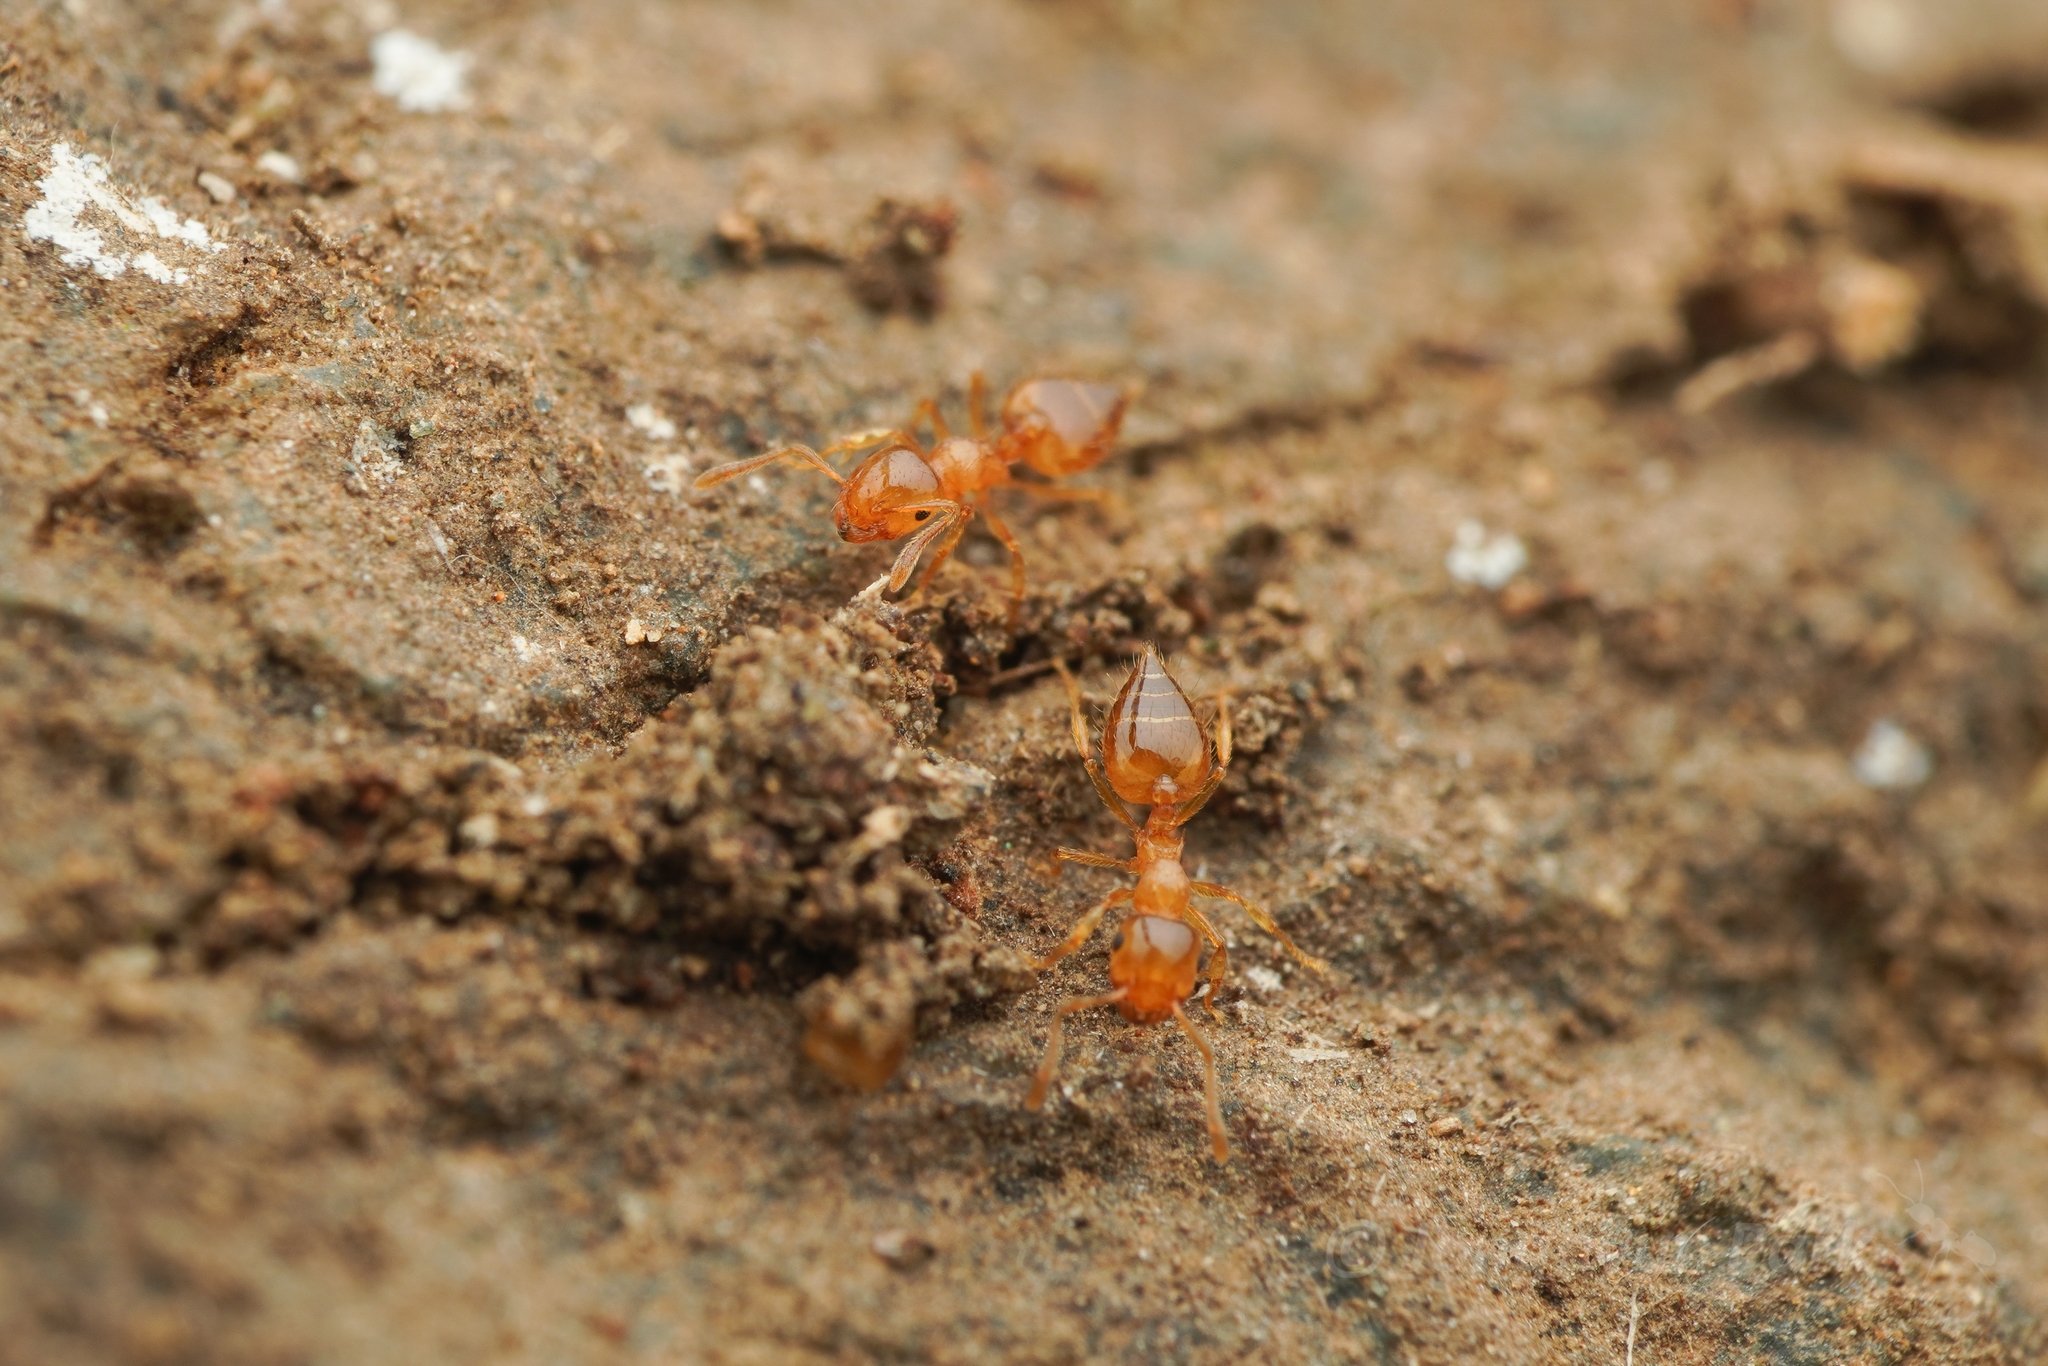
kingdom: Animalia
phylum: Arthropoda
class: Insecta
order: Hymenoptera
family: Formicidae
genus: Crematogaster
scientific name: Crematogaster osakensis
